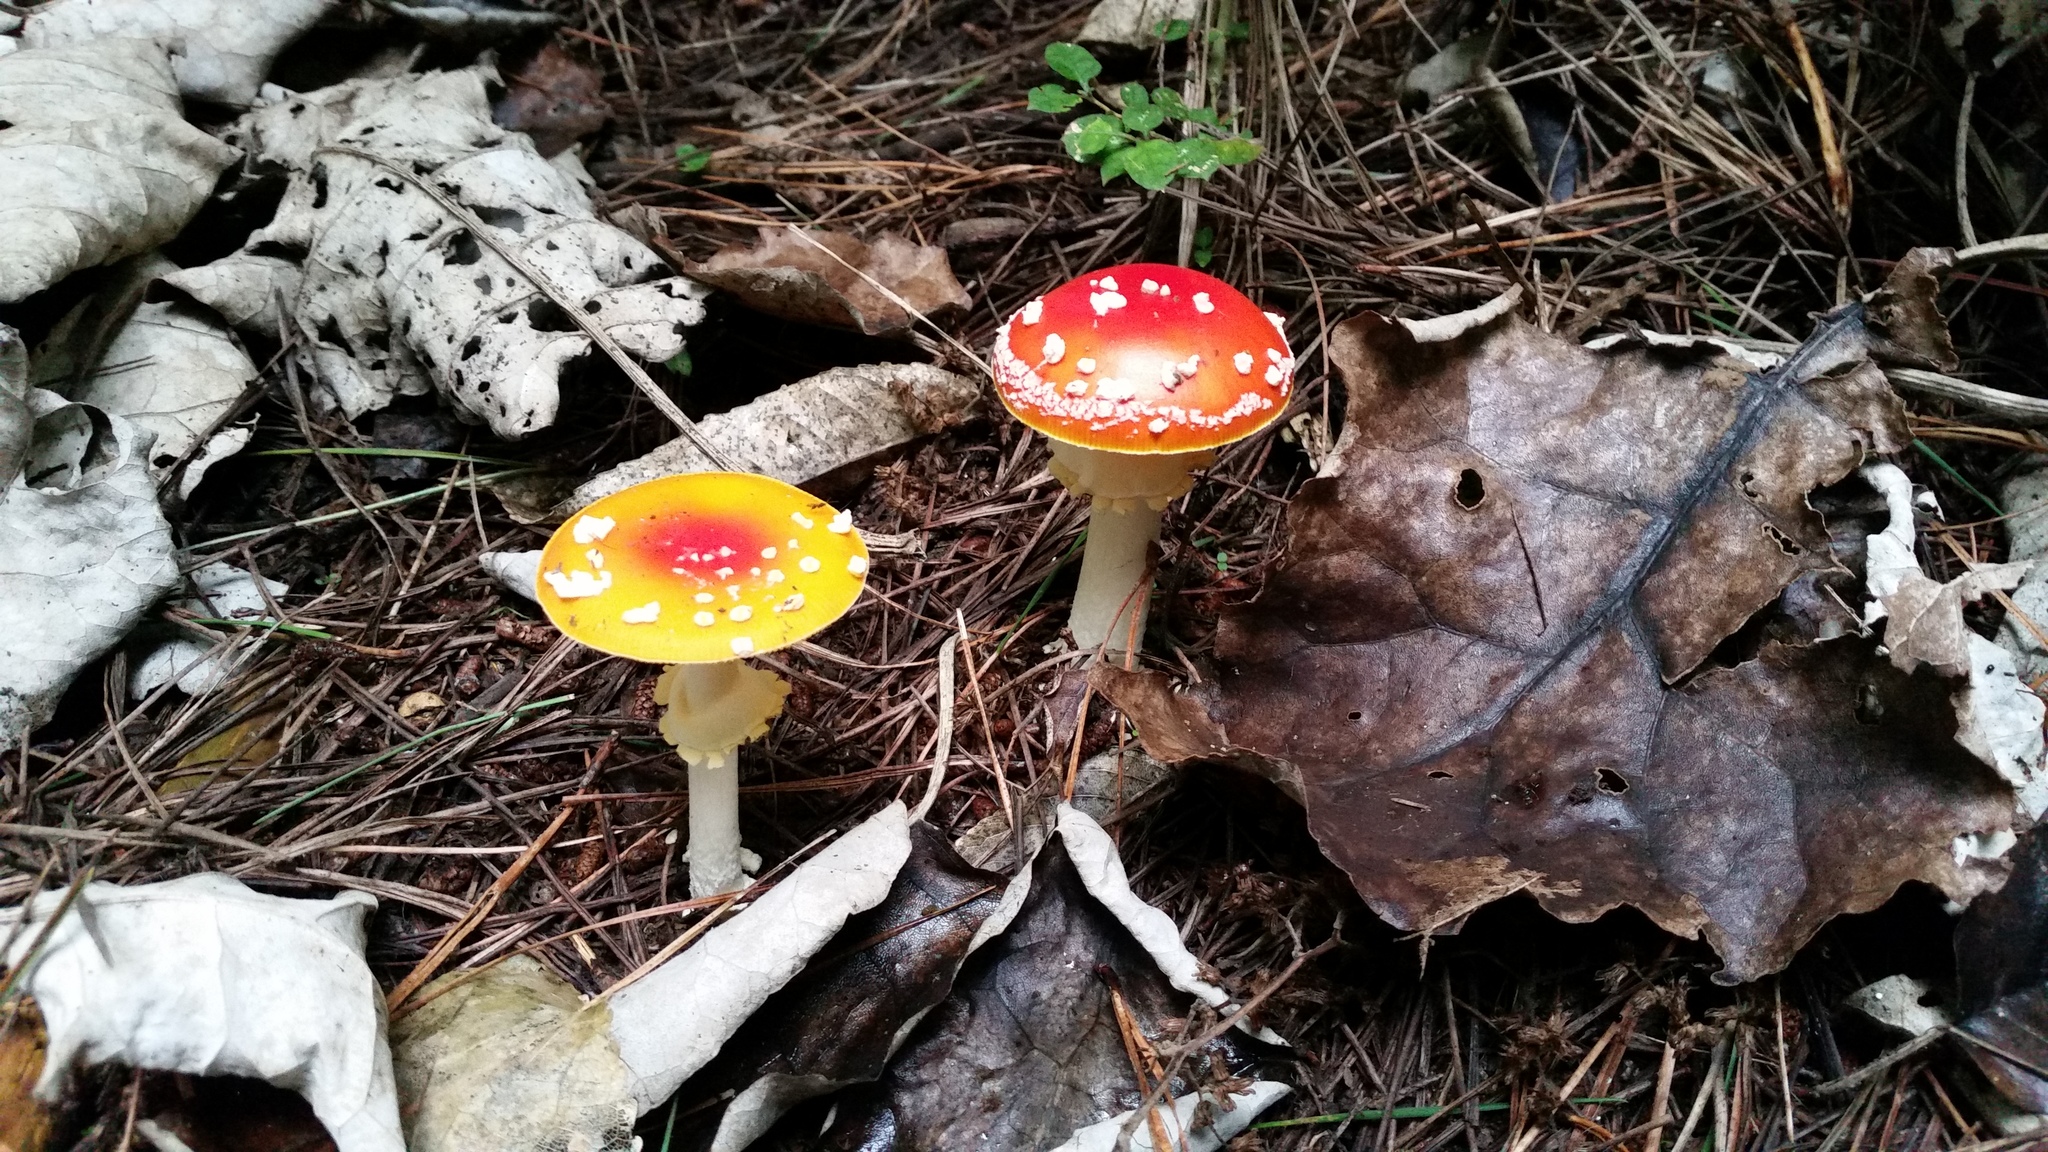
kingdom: Fungi
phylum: Basidiomycota
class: Agaricomycetes
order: Agaricales
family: Amanitaceae
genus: Amanita
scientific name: Amanita muscaria
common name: Fly agaric
